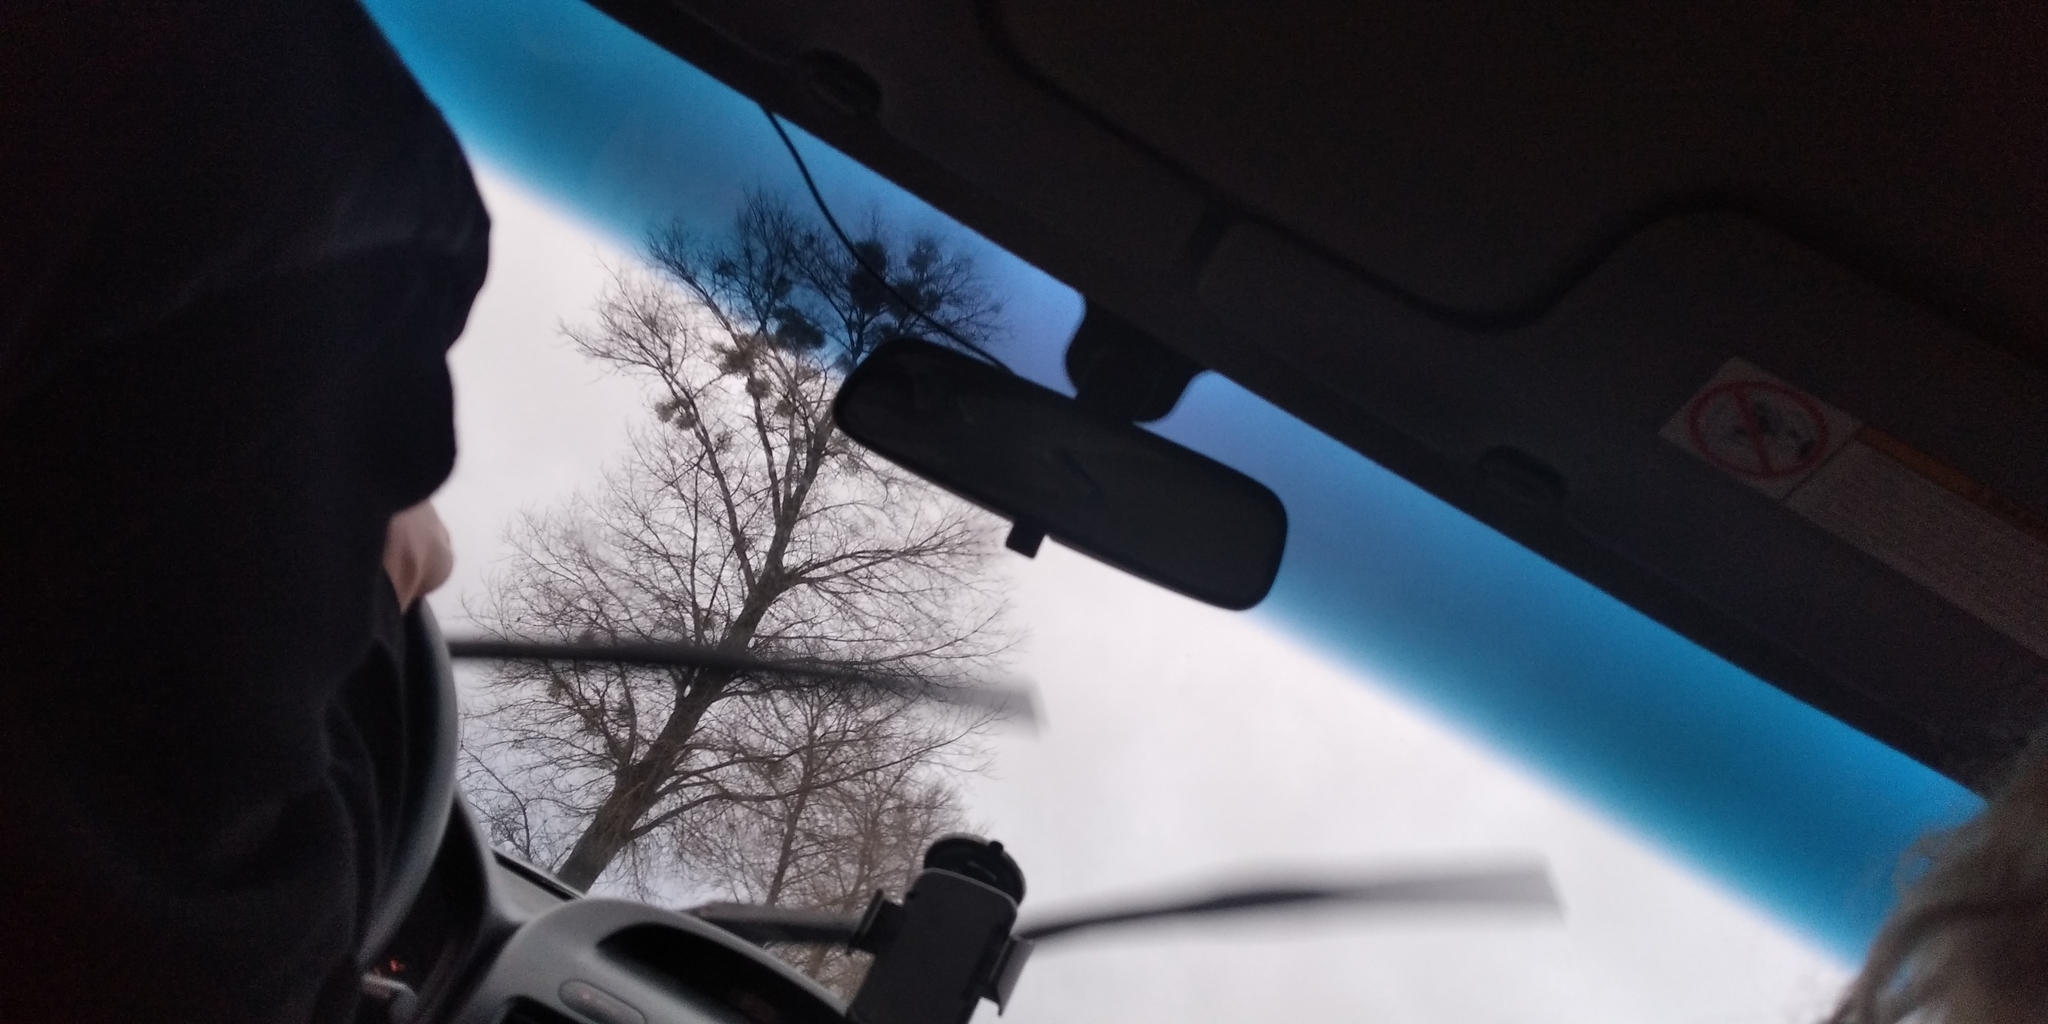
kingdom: Plantae
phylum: Tracheophyta
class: Magnoliopsida
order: Santalales
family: Viscaceae
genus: Viscum
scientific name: Viscum album
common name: Mistletoe
